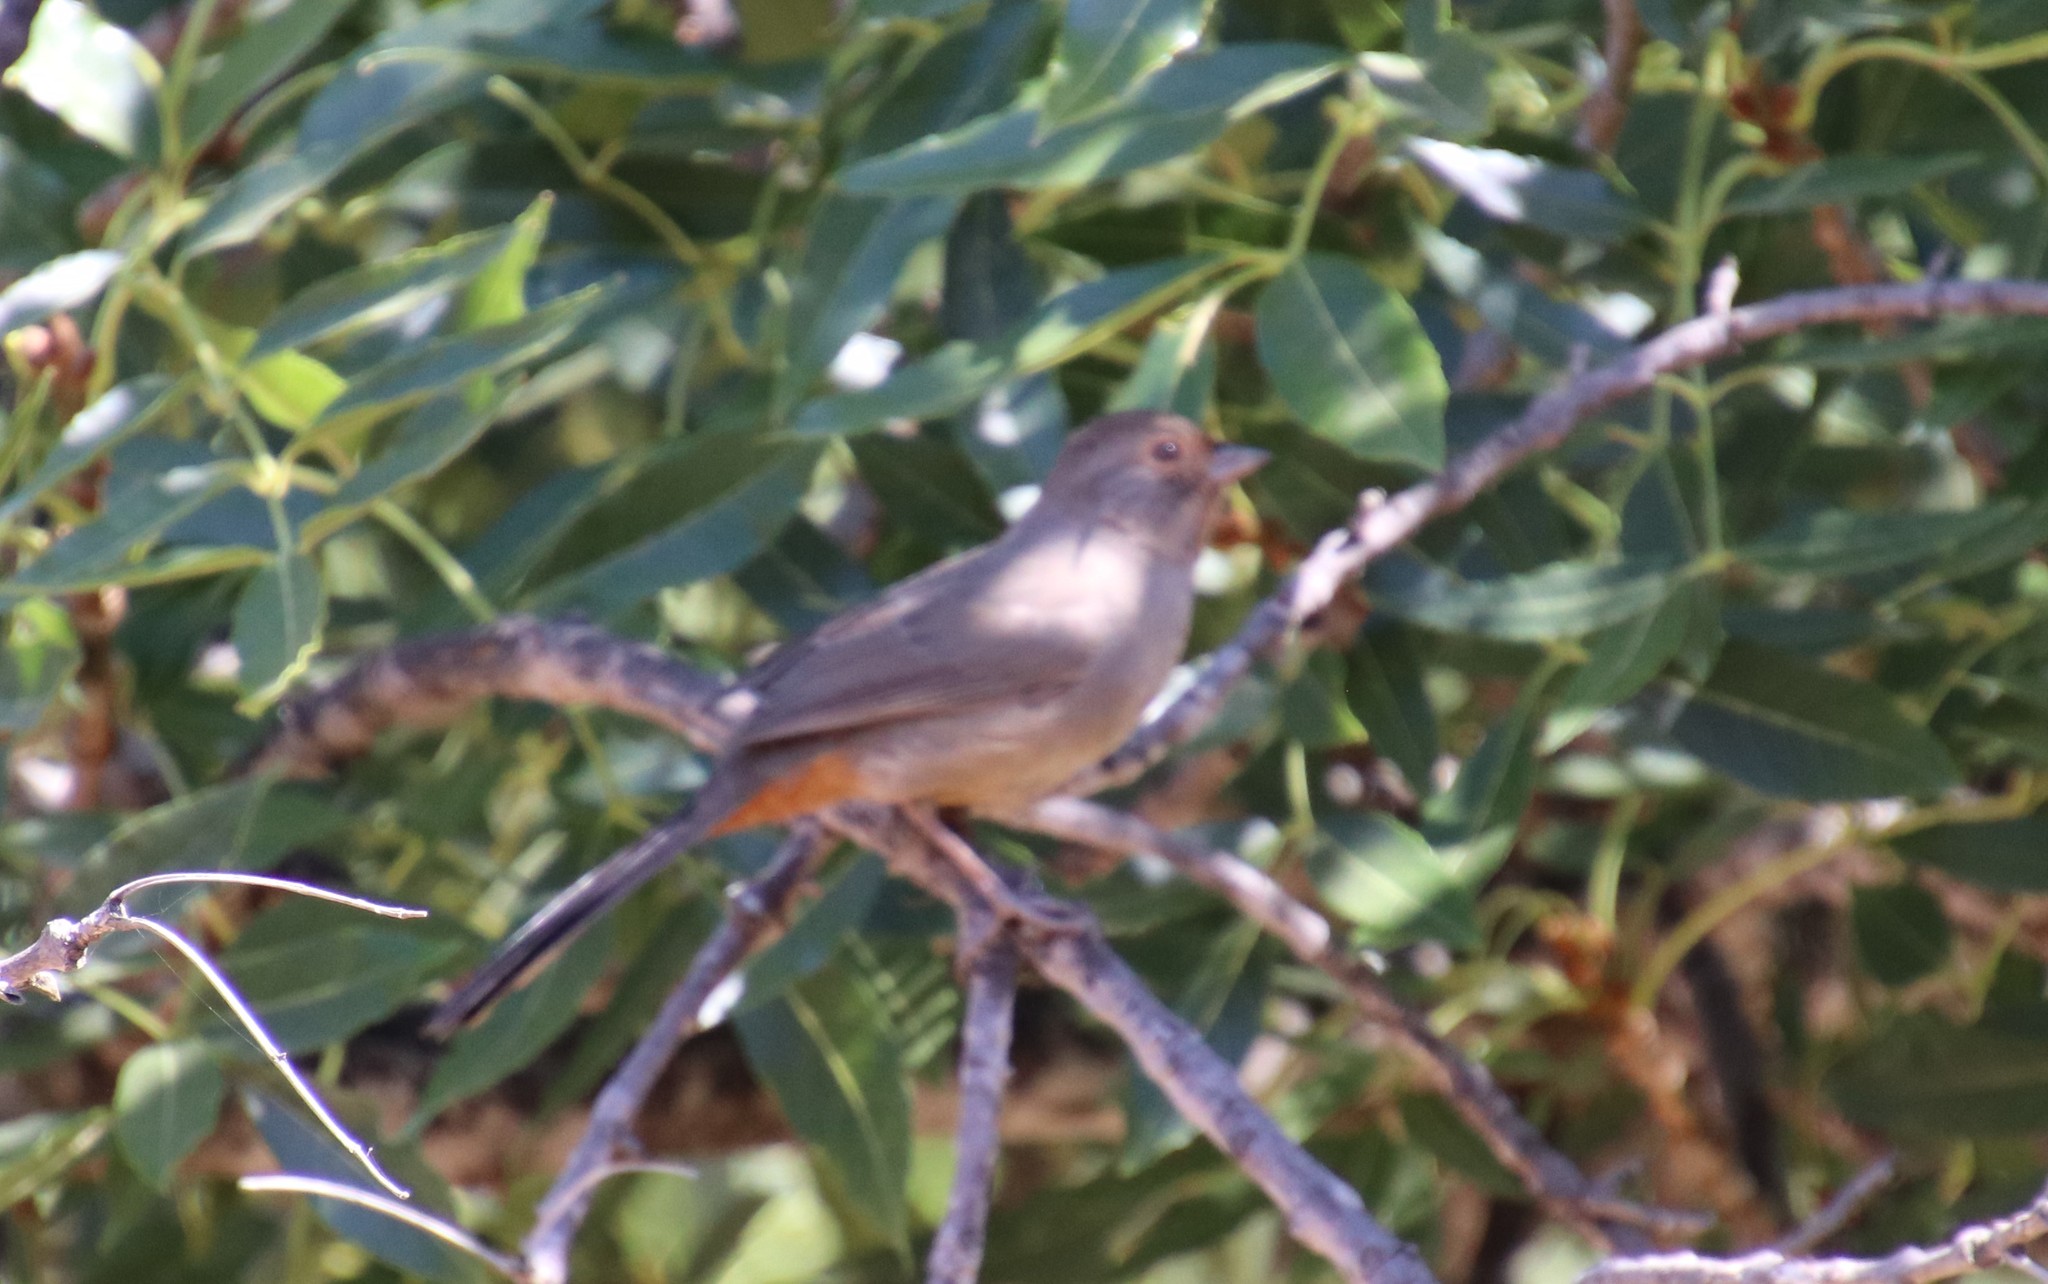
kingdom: Animalia
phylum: Chordata
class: Aves
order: Passeriformes
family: Passerellidae
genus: Melozone
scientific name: Melozone crissalis
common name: California towhee
